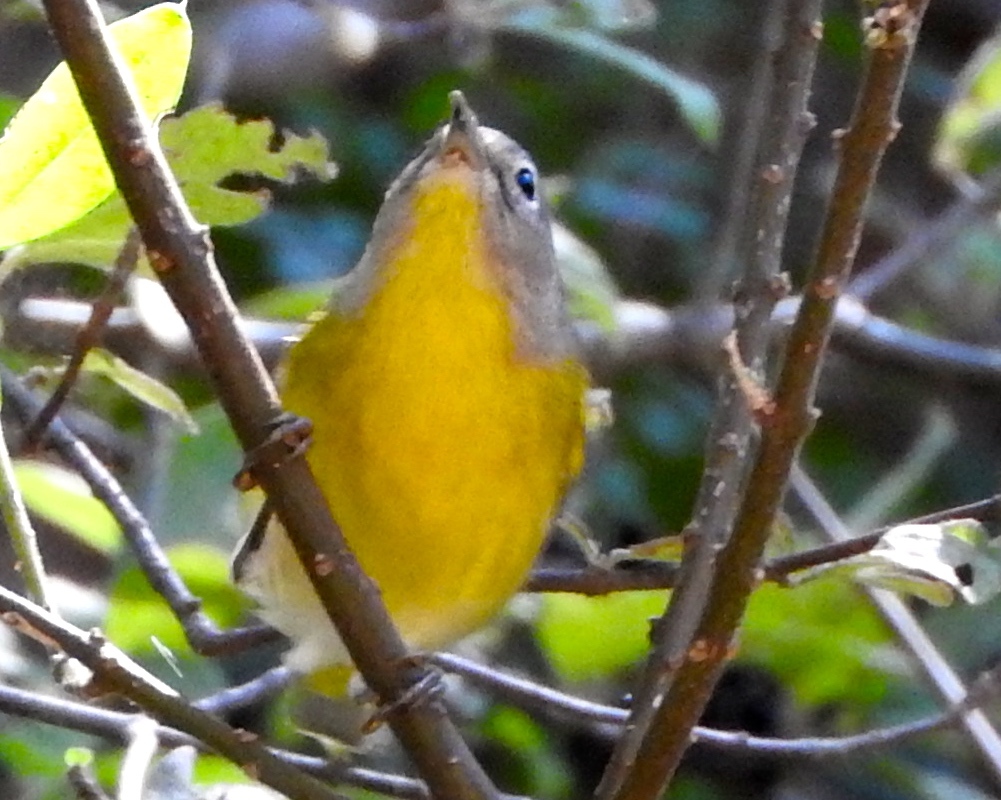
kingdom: Animalia
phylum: Chordata
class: Aves
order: Passeriformes
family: Parulidae
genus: Leiothlypis
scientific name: Leiothlypis ruficapilla
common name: Nashville warbler
